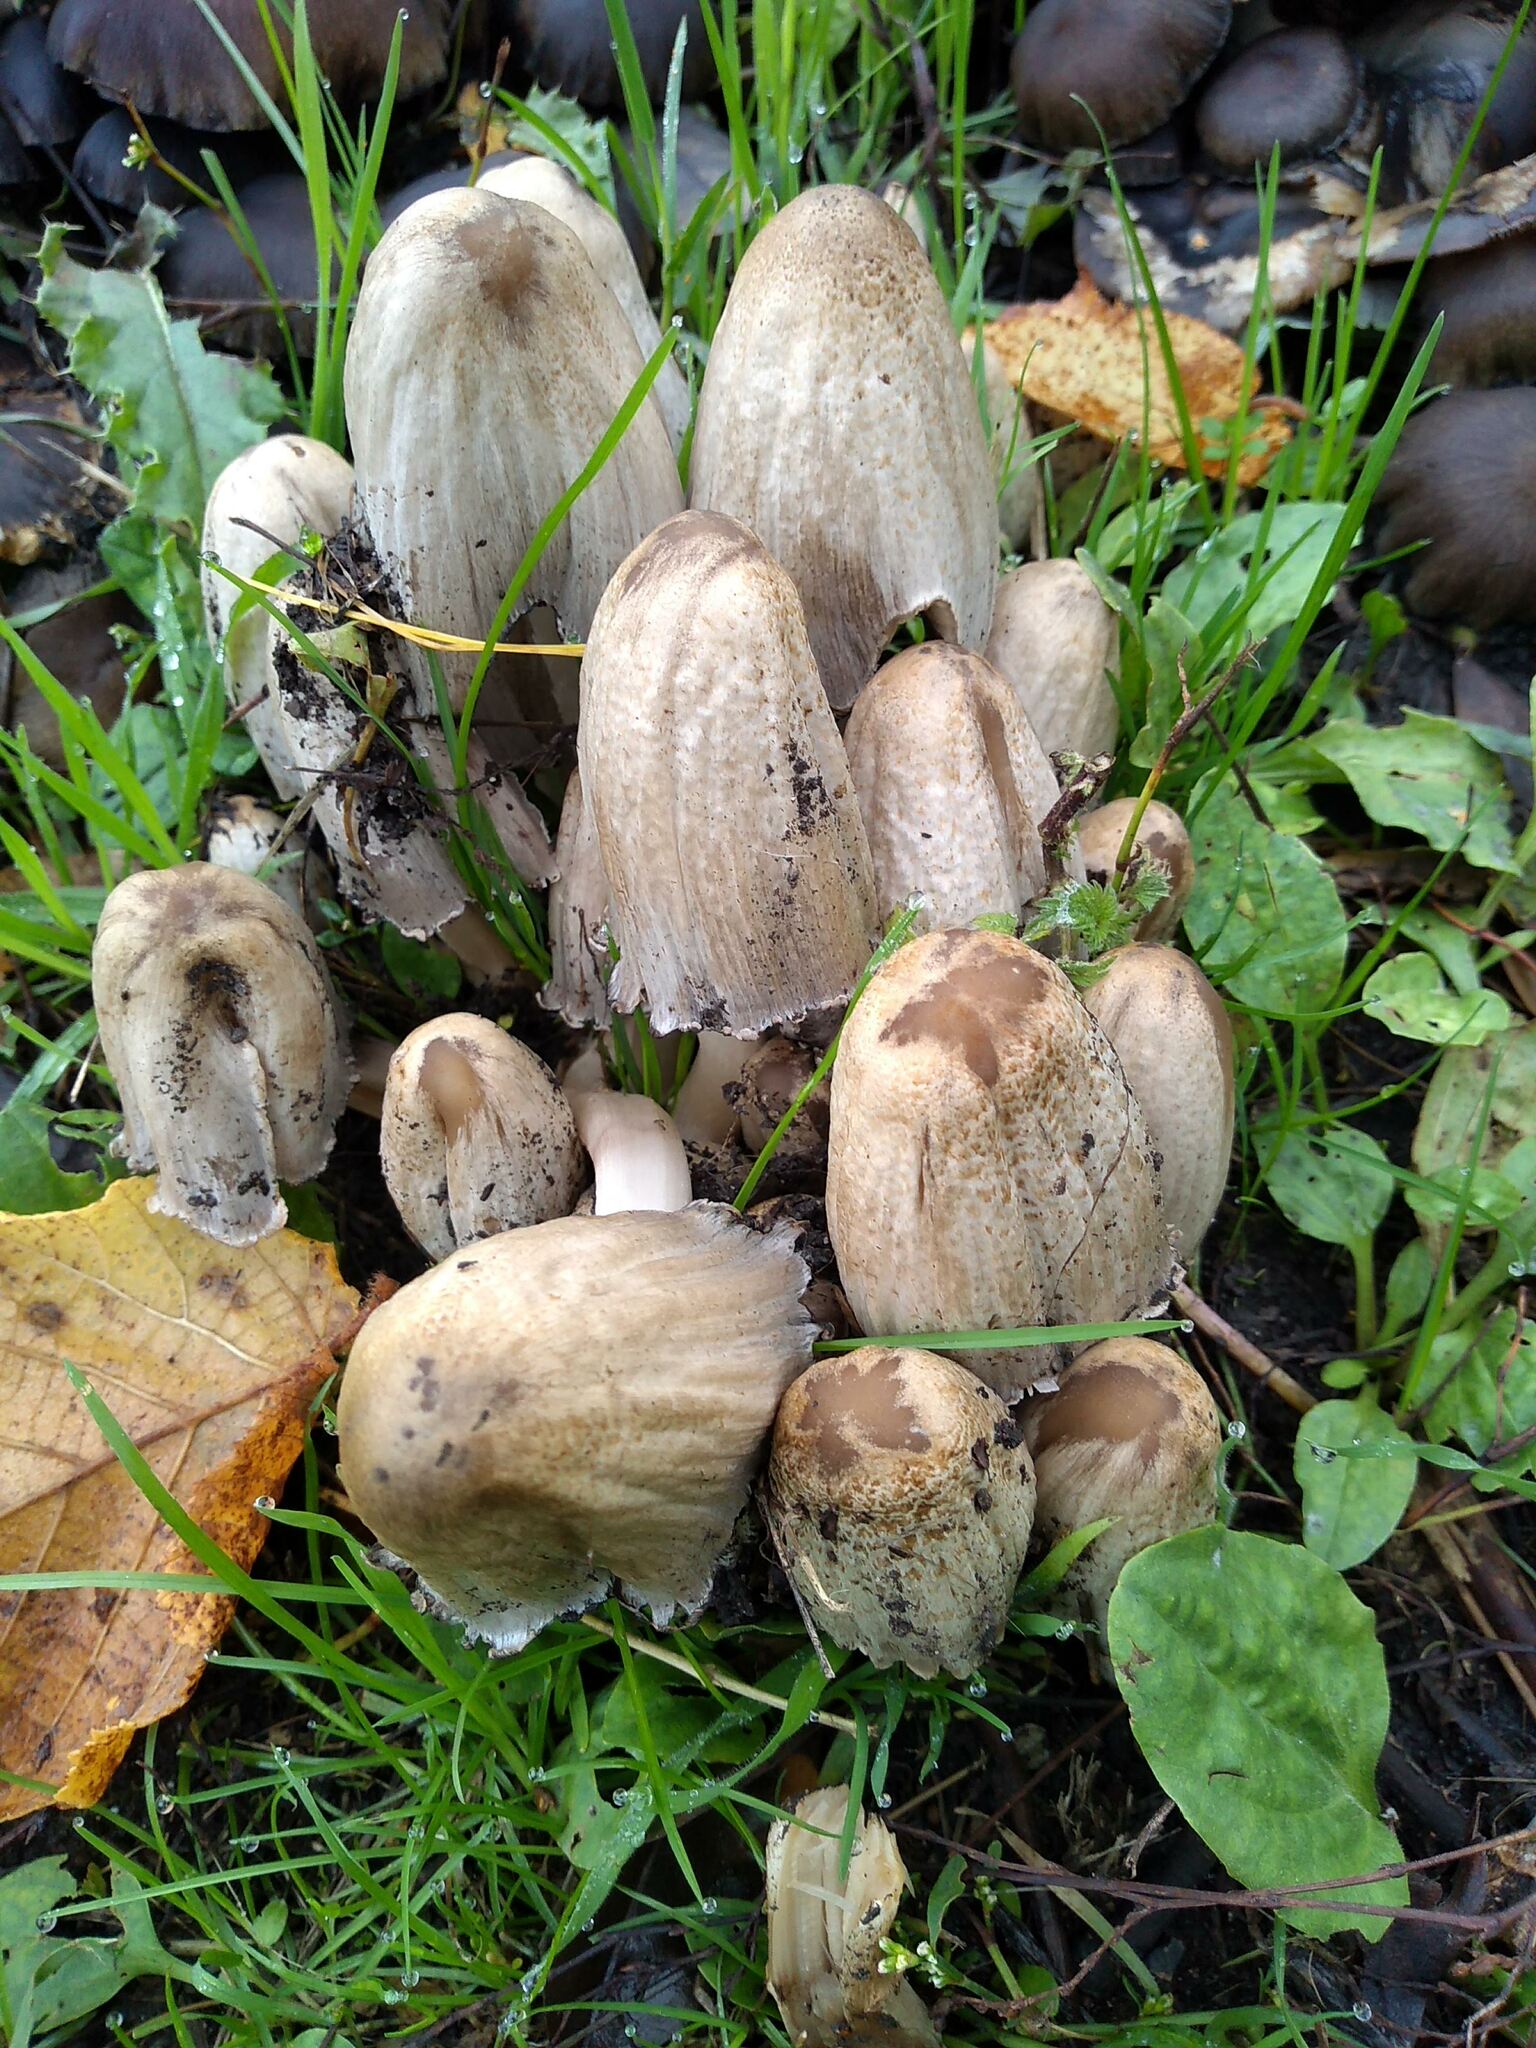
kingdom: Fungi
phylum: Basidiomycota
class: Agaricomycetes
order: Agaricales
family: Psathyrellaceae
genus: Coprinopsis
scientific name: Coprinopsis atramentaria
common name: Common ink-cap
